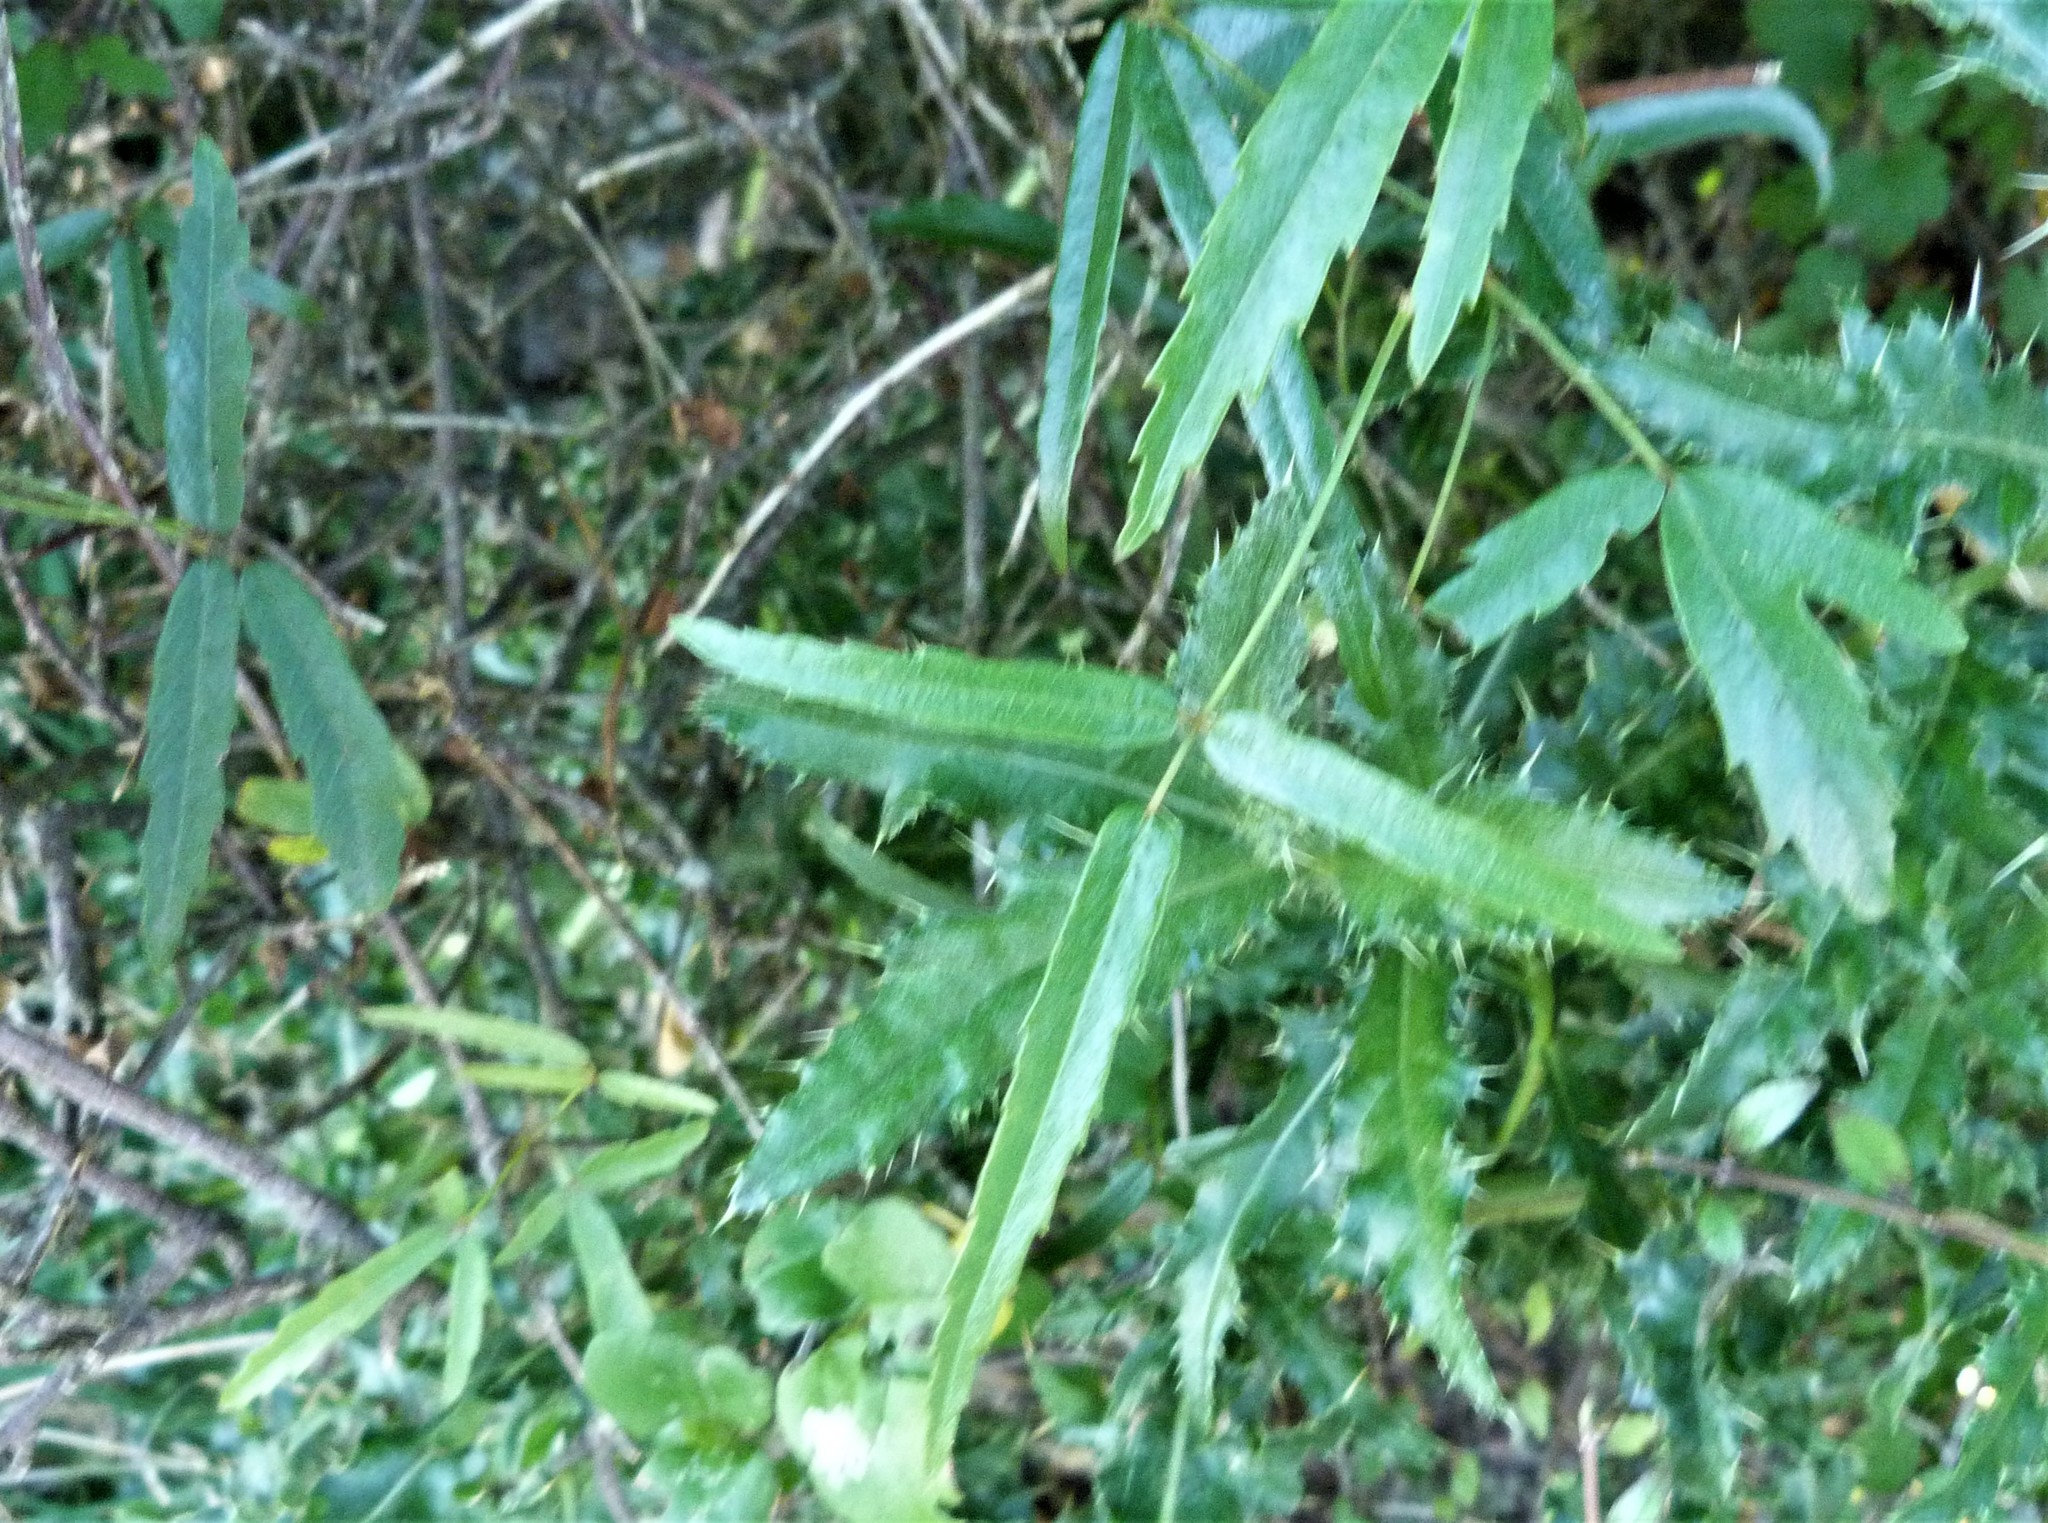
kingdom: Plantae
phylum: Tracheophyta
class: Magnoliopsida
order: Rosales
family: Rosaceae
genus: Rubus
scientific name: Rubus schmidelioides
